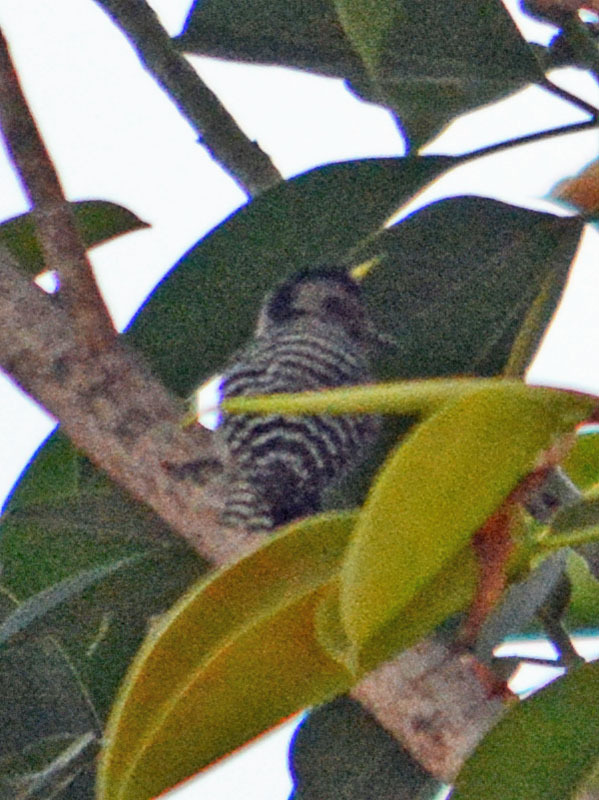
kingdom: Animalia
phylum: Chordata
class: Aves
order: Piciformes
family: Picidae
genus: Dryobates
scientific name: Dryobates scalaris
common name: Ladder-backed woodpecker
